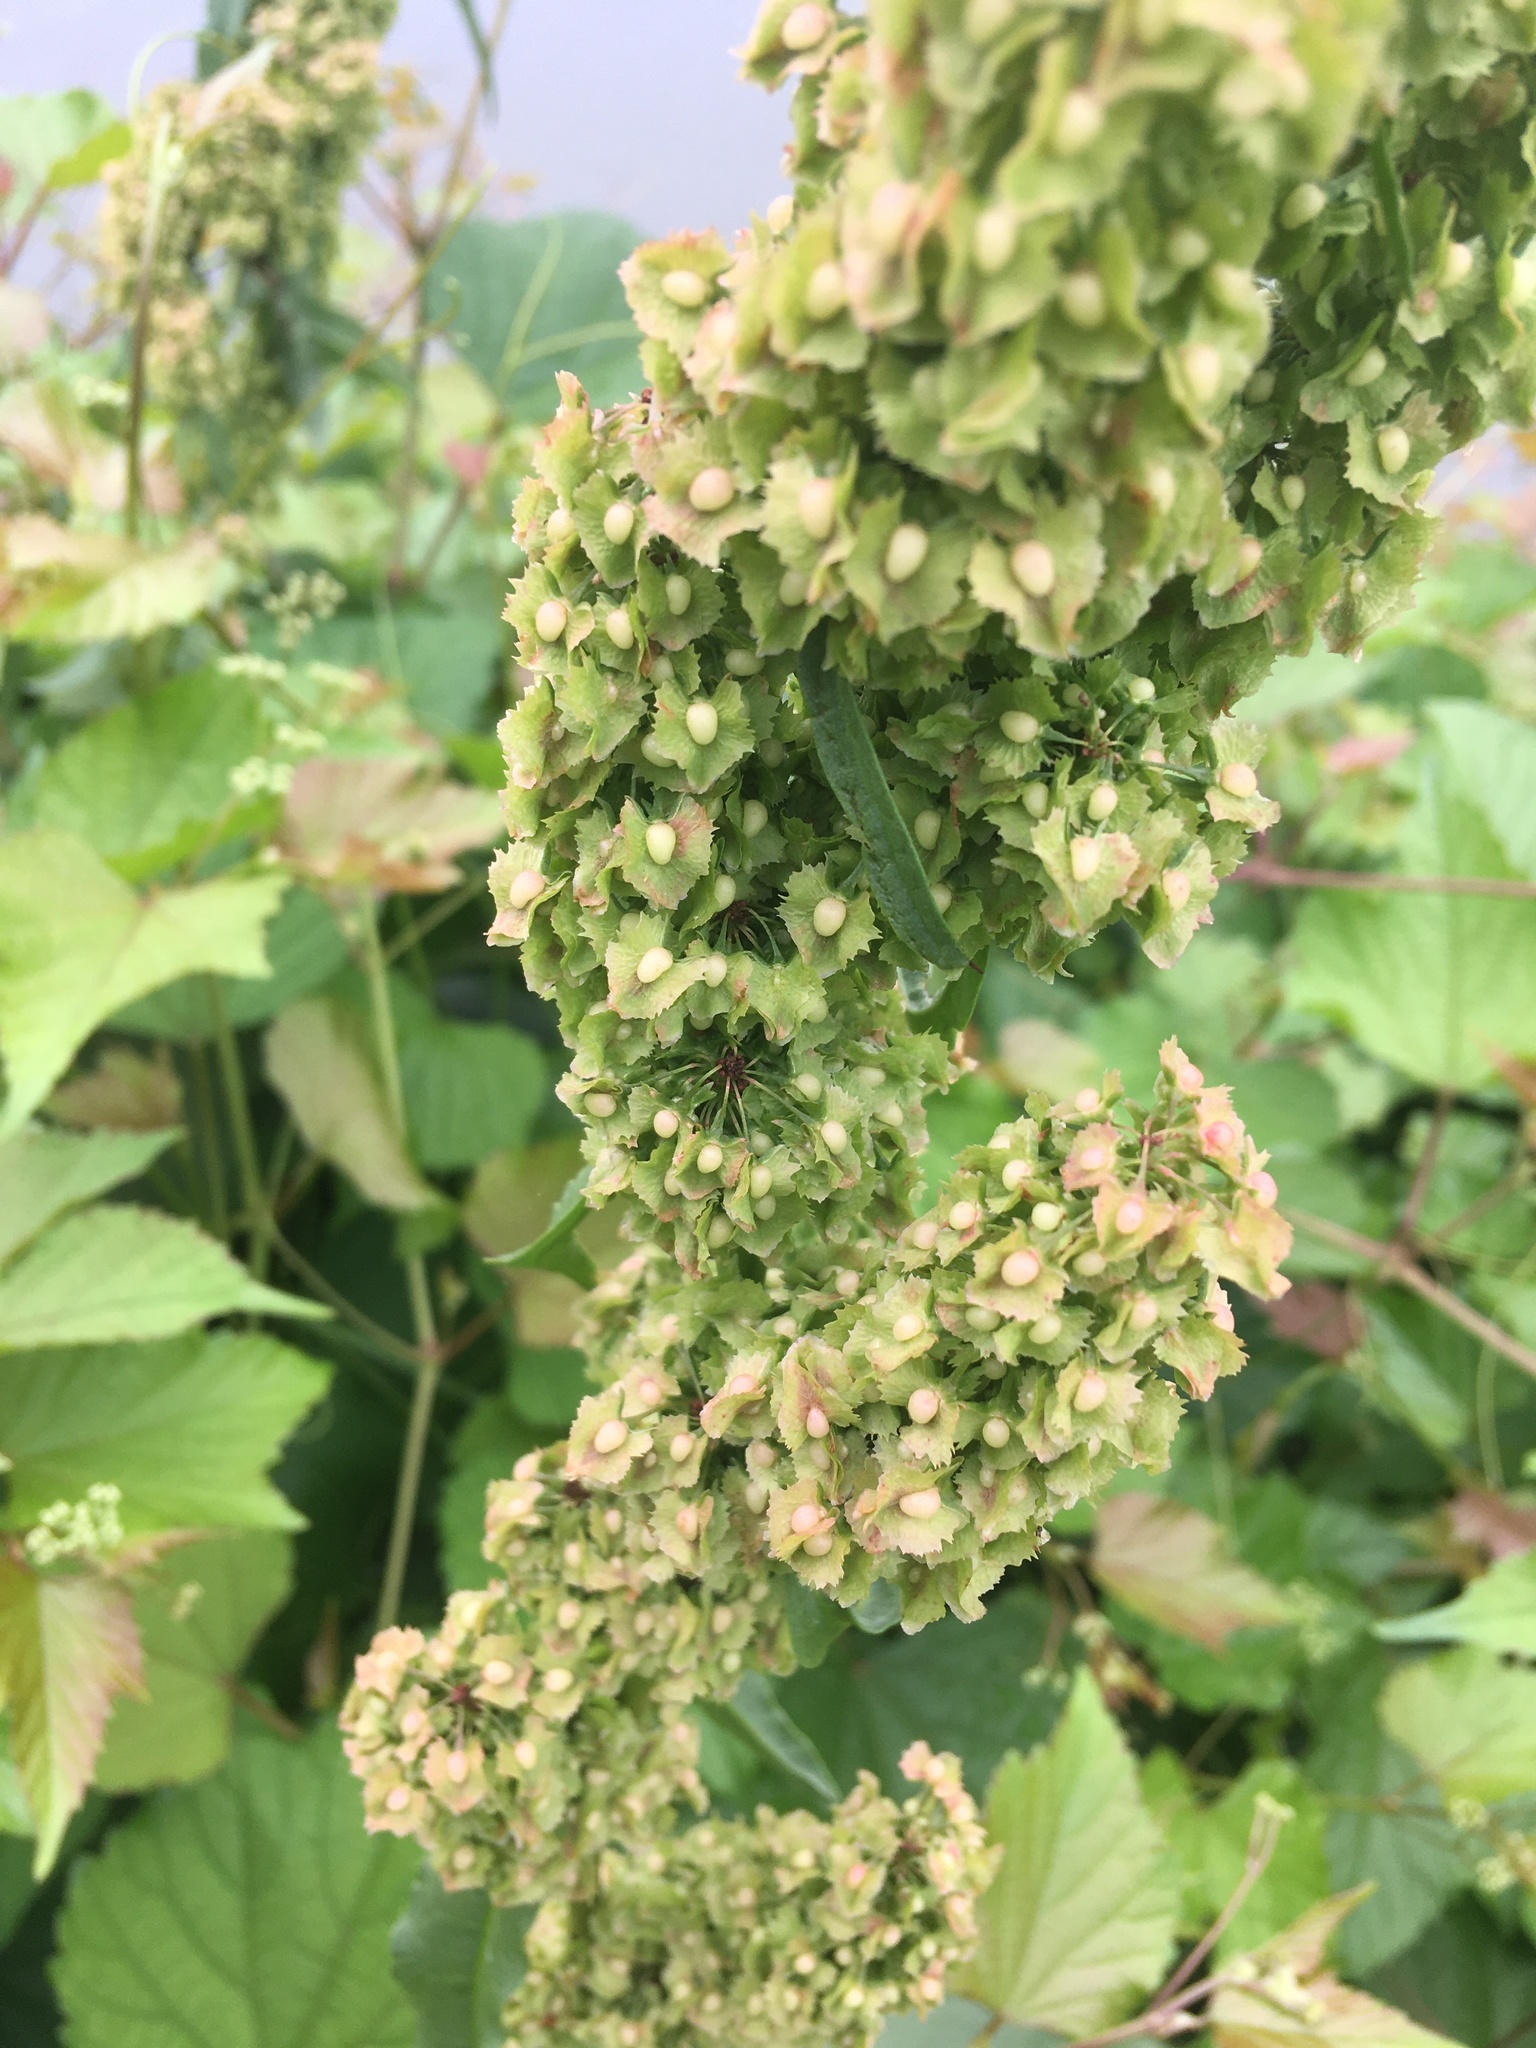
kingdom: Plantae
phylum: Tracheophyta
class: Magnoliopsida
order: Caryophyllales
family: Polygonaceae
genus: Rumex
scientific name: Rumex cristatus
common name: Greek dock
